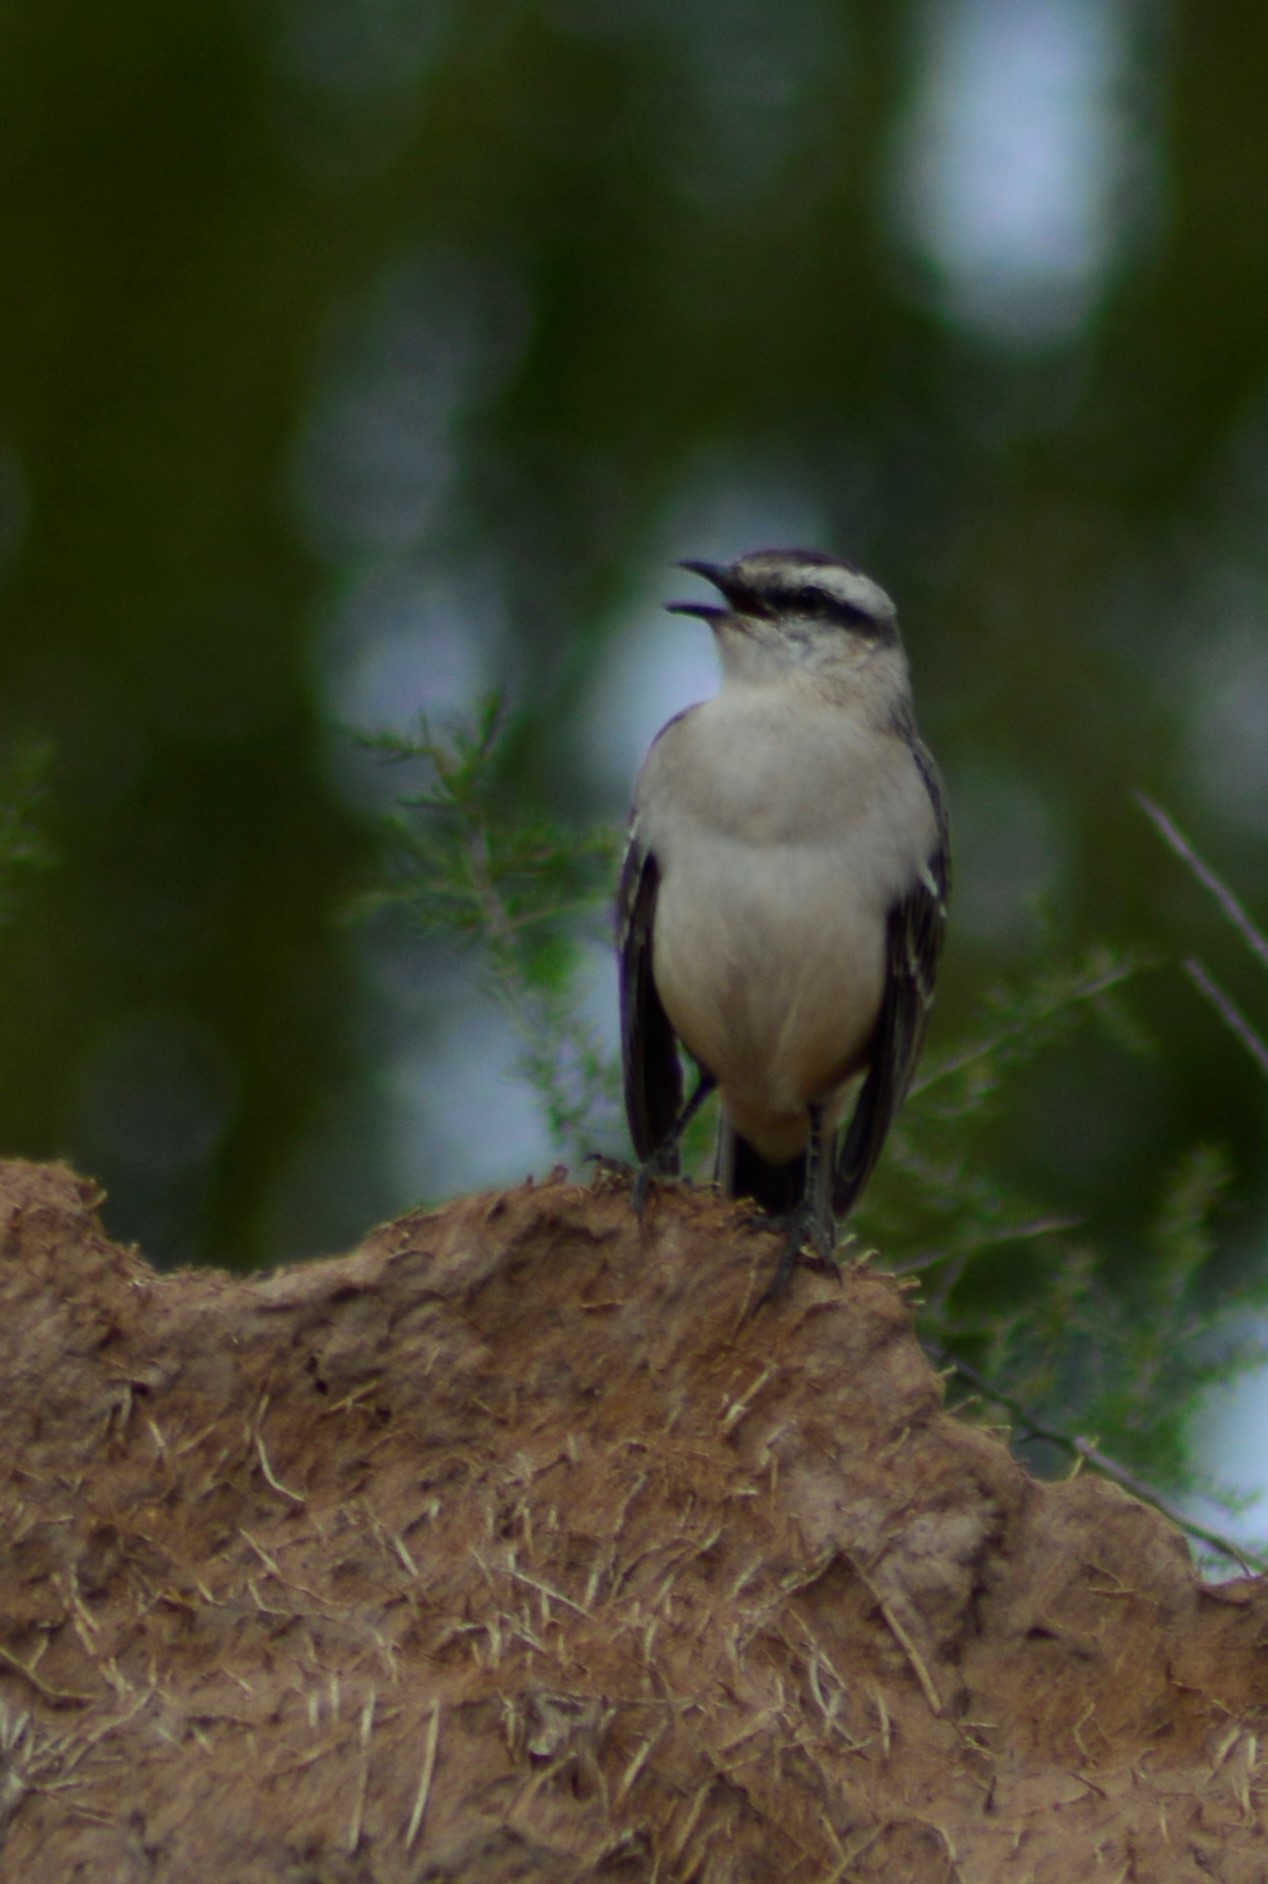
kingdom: Animalia
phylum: Chordata
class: Aves
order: Passeriformes
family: Mimidae
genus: Mimus
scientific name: Mimus saturninus
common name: Chalk-browed mockingbird
